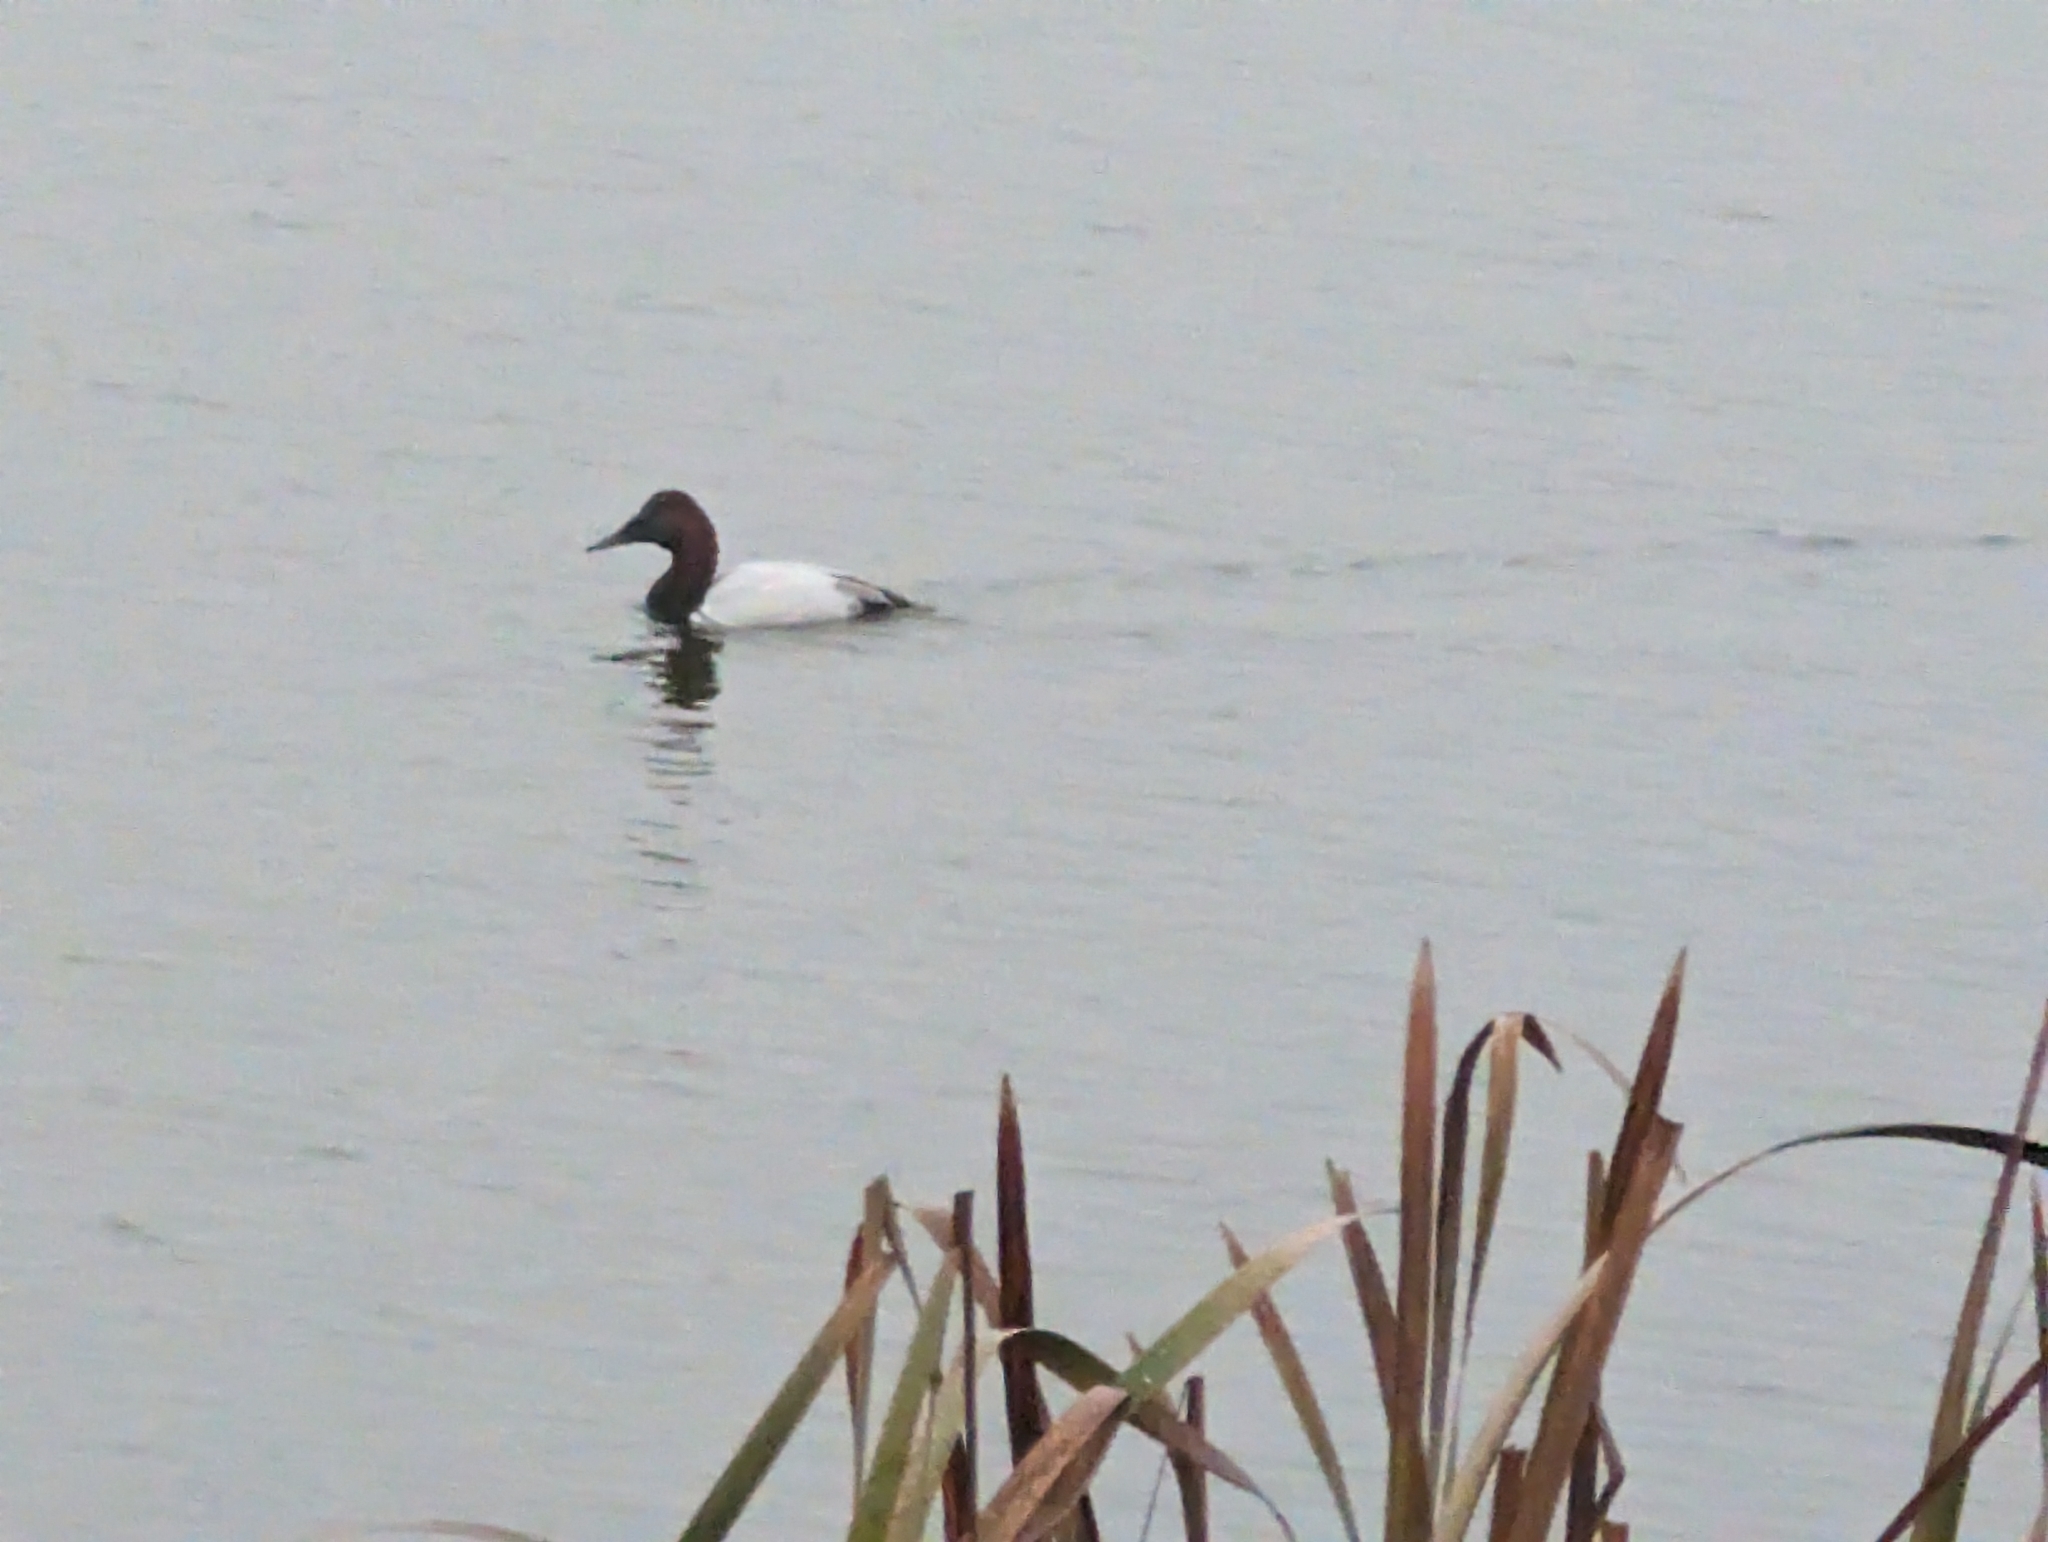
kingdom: Animalia
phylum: Chordata
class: Aves
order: Anseriformes
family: Anatidae
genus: Aythya
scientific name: Aythya valisineria
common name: Canvasback
